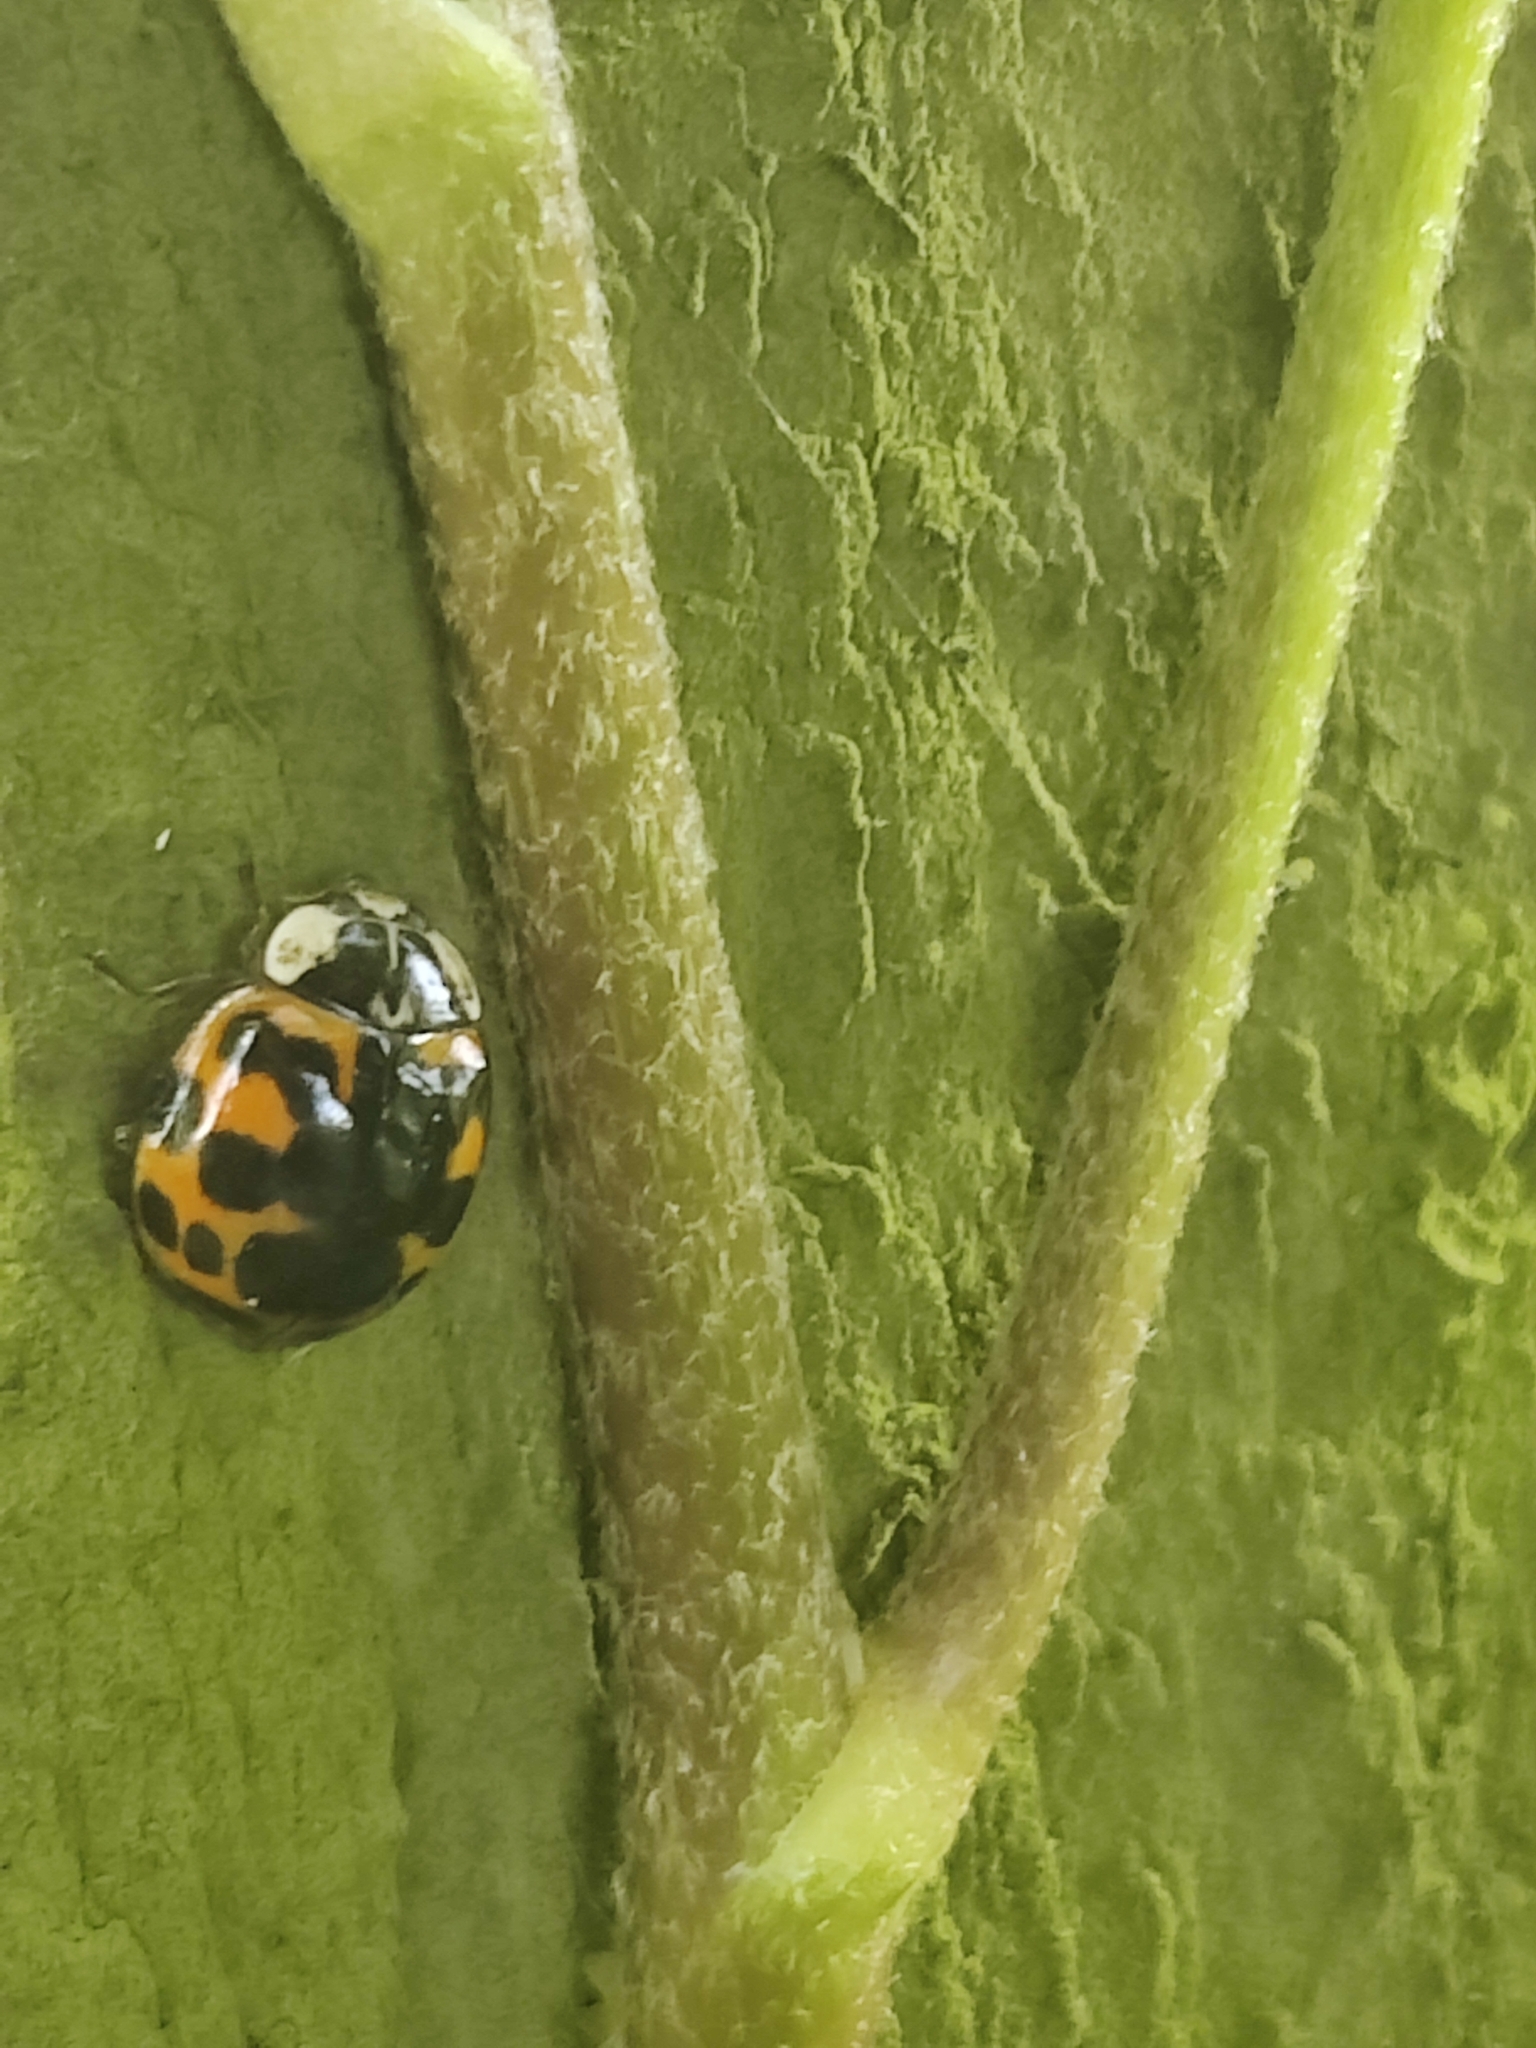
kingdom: Animalia
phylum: Arthropoda
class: Insecta
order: Coleoptera
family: Coccinellidae
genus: Harmonia
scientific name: Harmonia axyridis
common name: Harlequin ladybird
